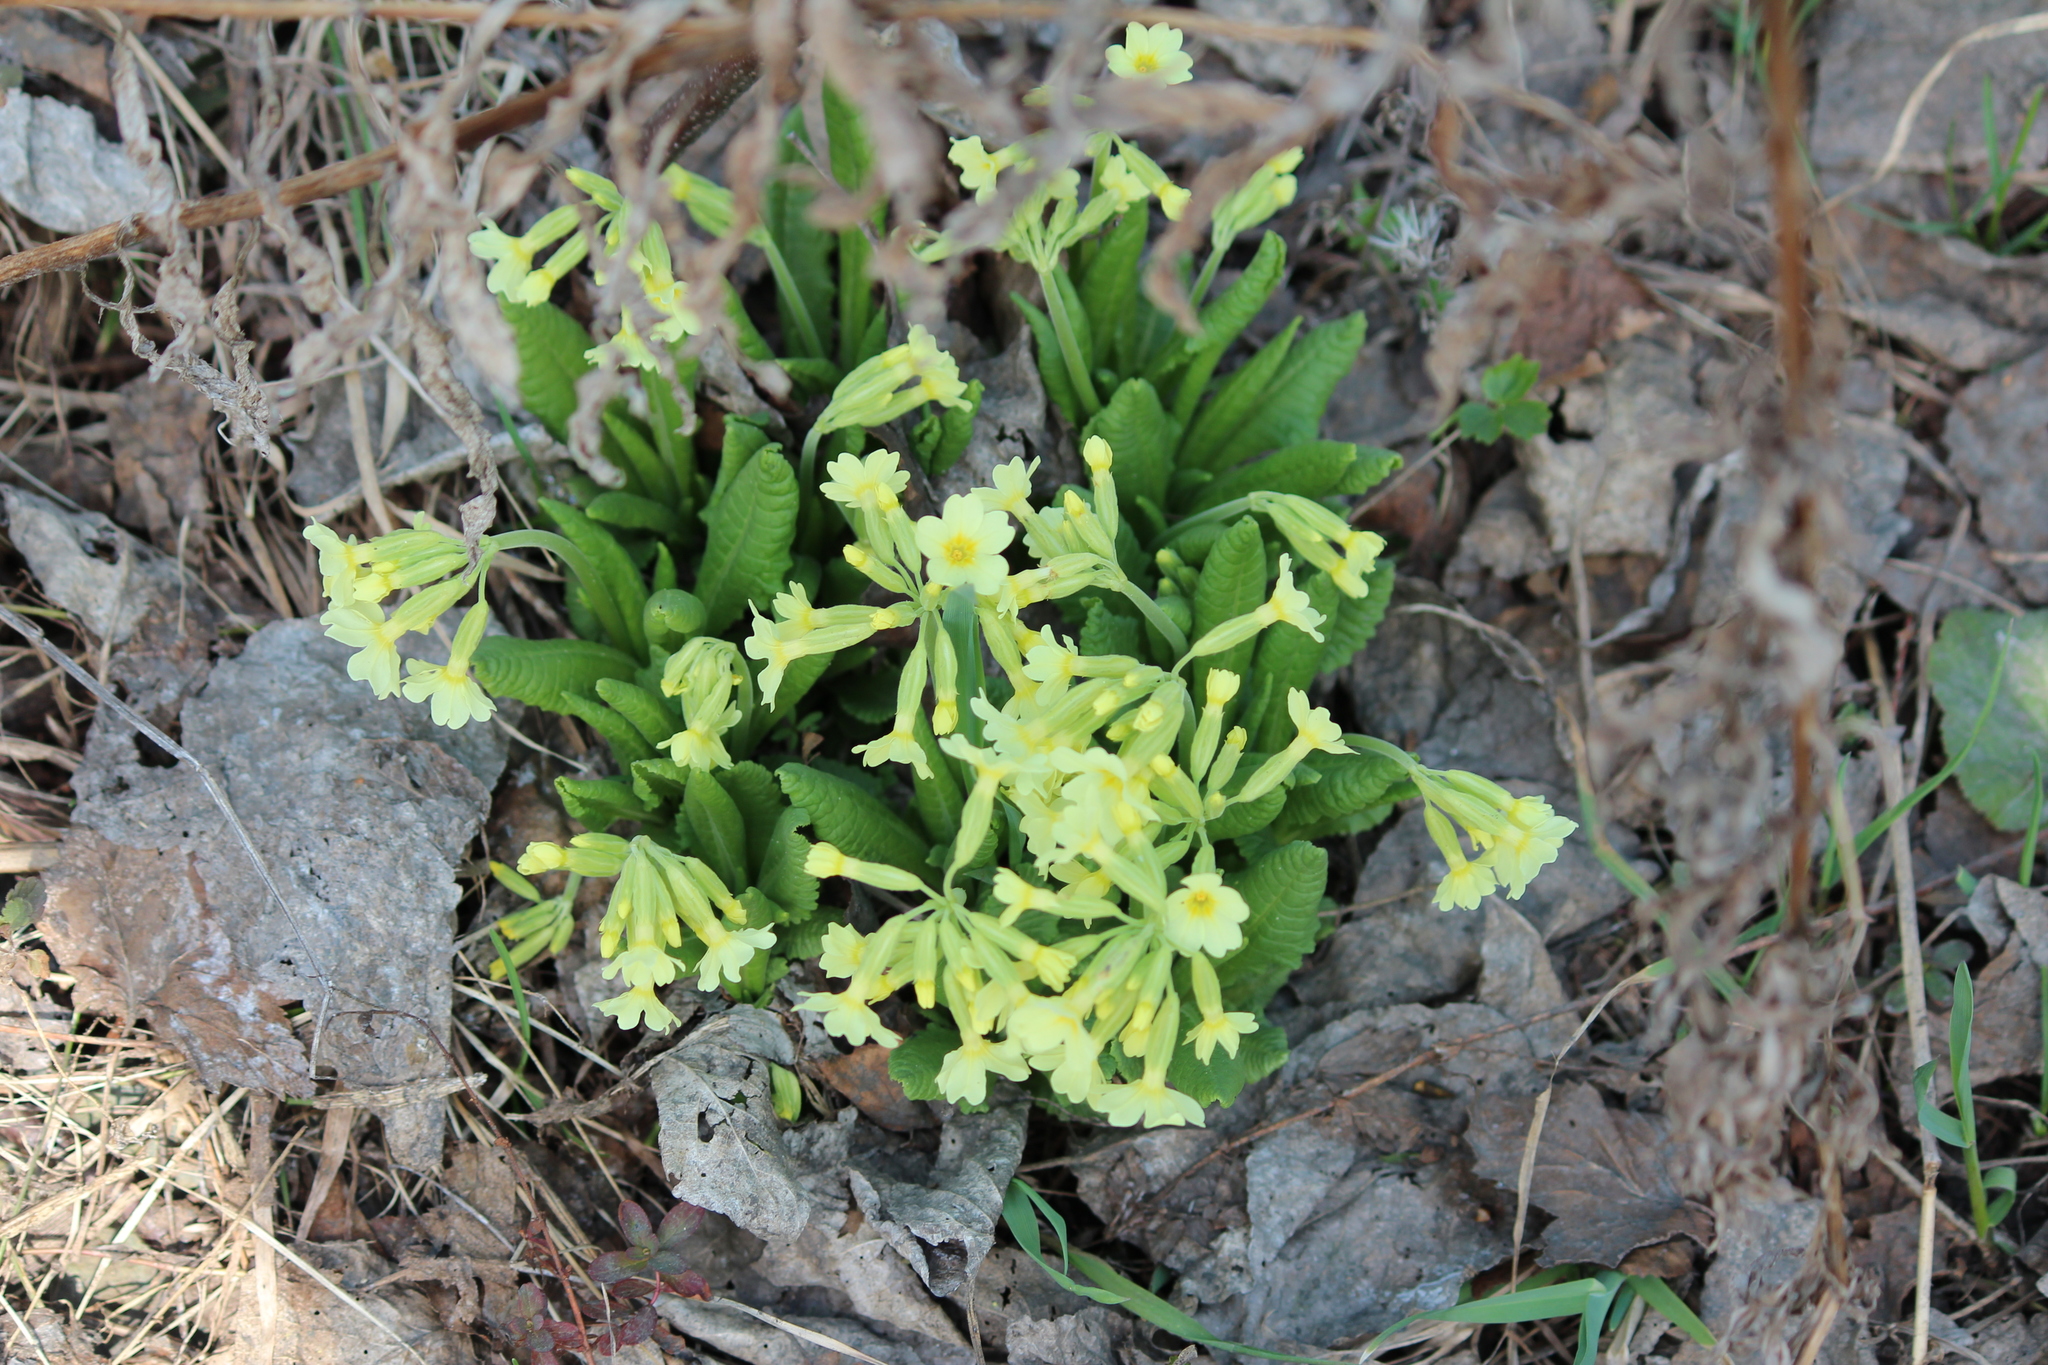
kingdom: Plantae
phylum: Tracheophyta
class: Magnoliopsida
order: Ericales
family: Primulaceae
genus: Primula
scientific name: Primula elatior
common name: Oxlip
